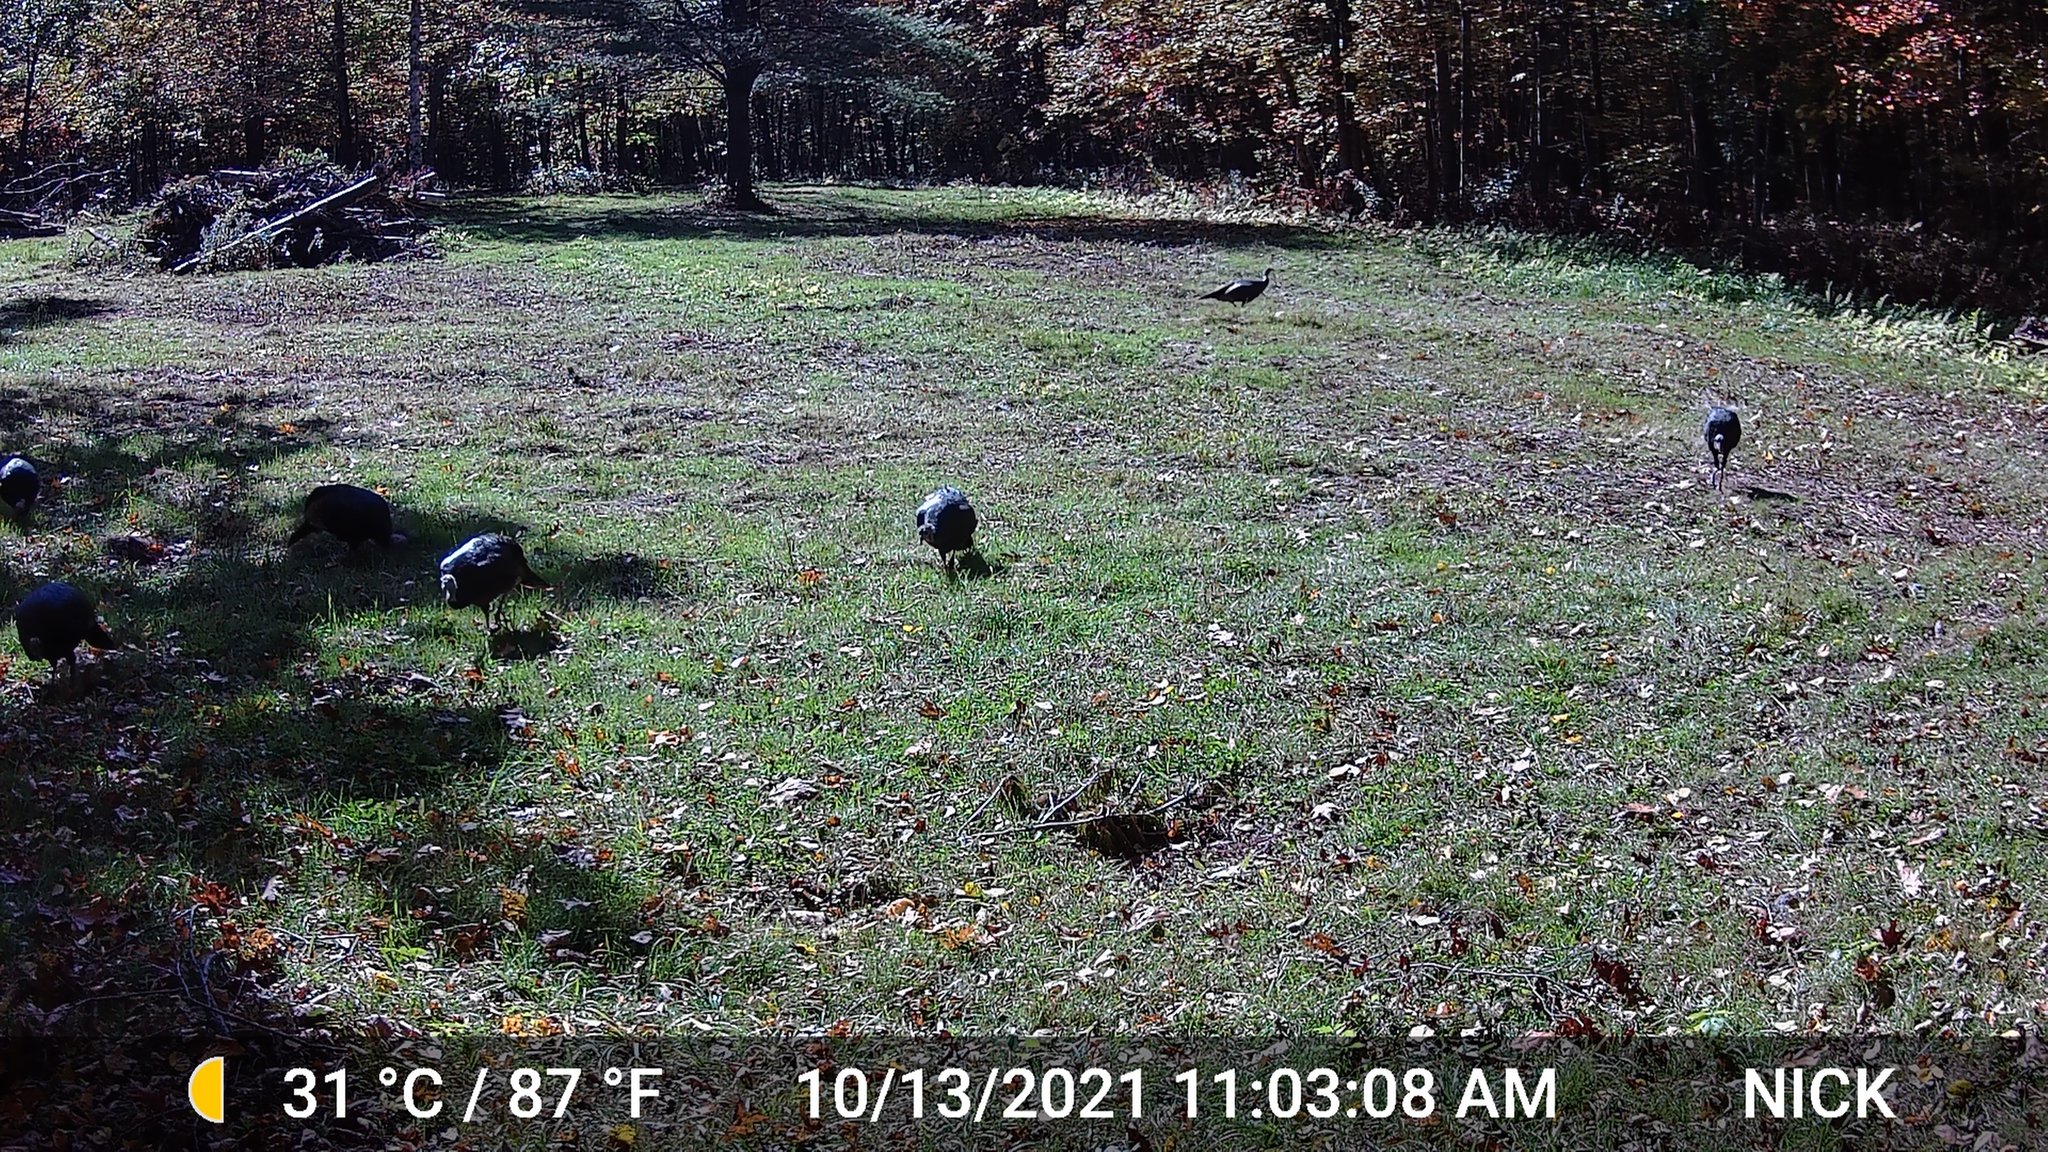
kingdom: Animalia
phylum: Chordata
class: Aves
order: Galliformes
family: Phasianidae
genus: Meleagris
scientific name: Meleagris gallopavo
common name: Wild turkey
